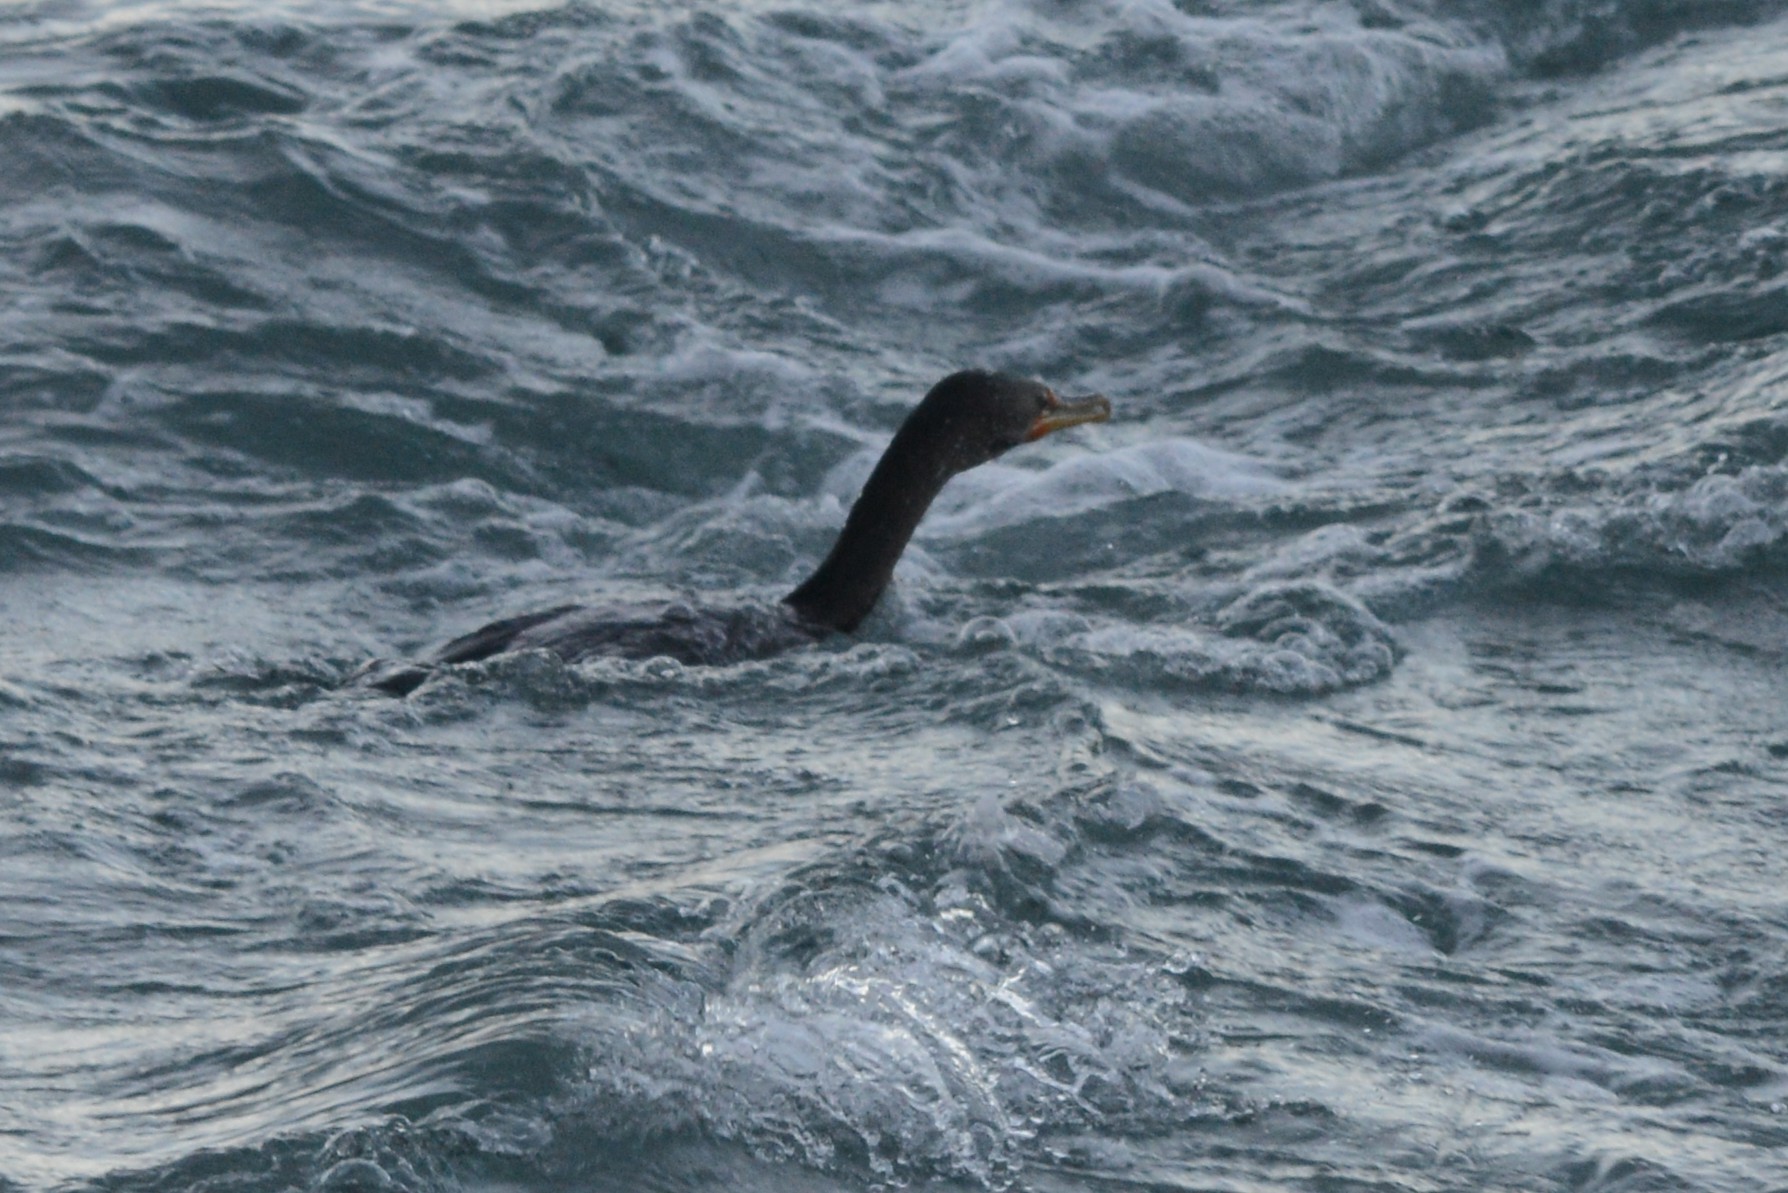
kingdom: Animalia
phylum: Chordata
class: Aves
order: Suliformes
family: Phalacrocoracidae
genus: Phalacrocorax
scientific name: Phalacrocorax auritus
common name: Double-crested cormorant
